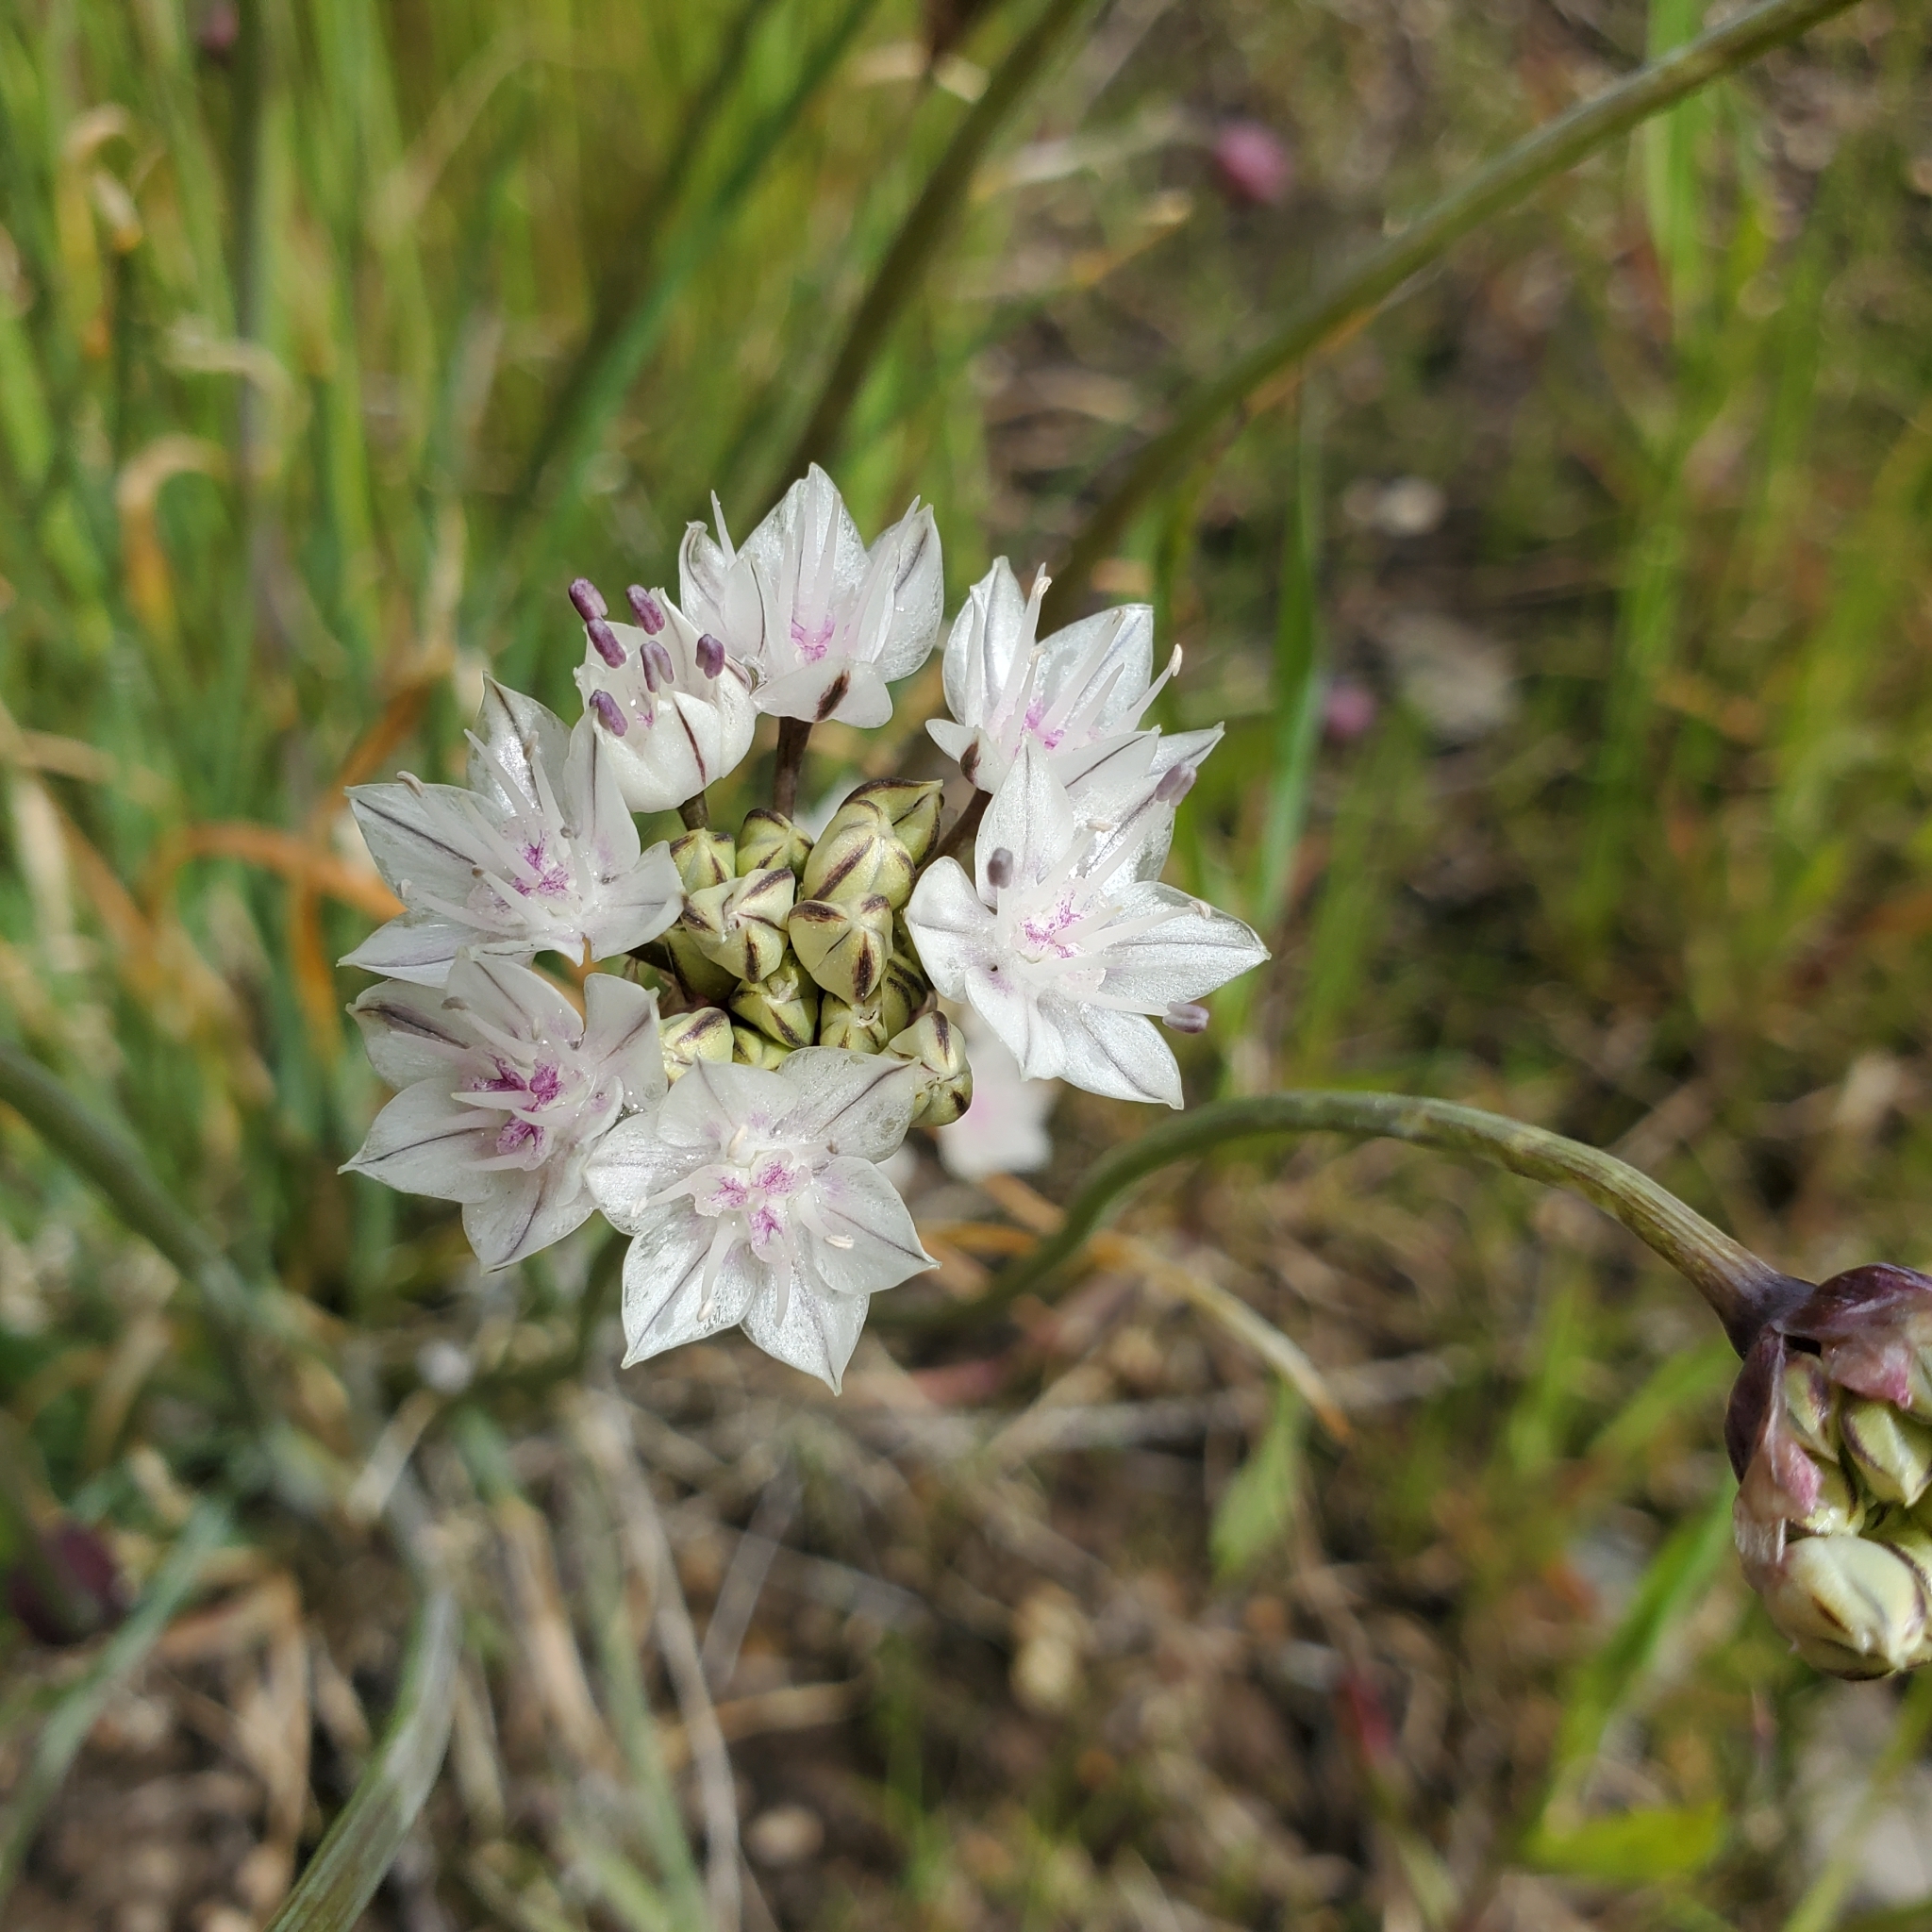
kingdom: Plantae
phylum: Tracheophyta
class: Liliopsida
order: Asparagales
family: Amaryllidaceae
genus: Allium
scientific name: Allium haematochiton
